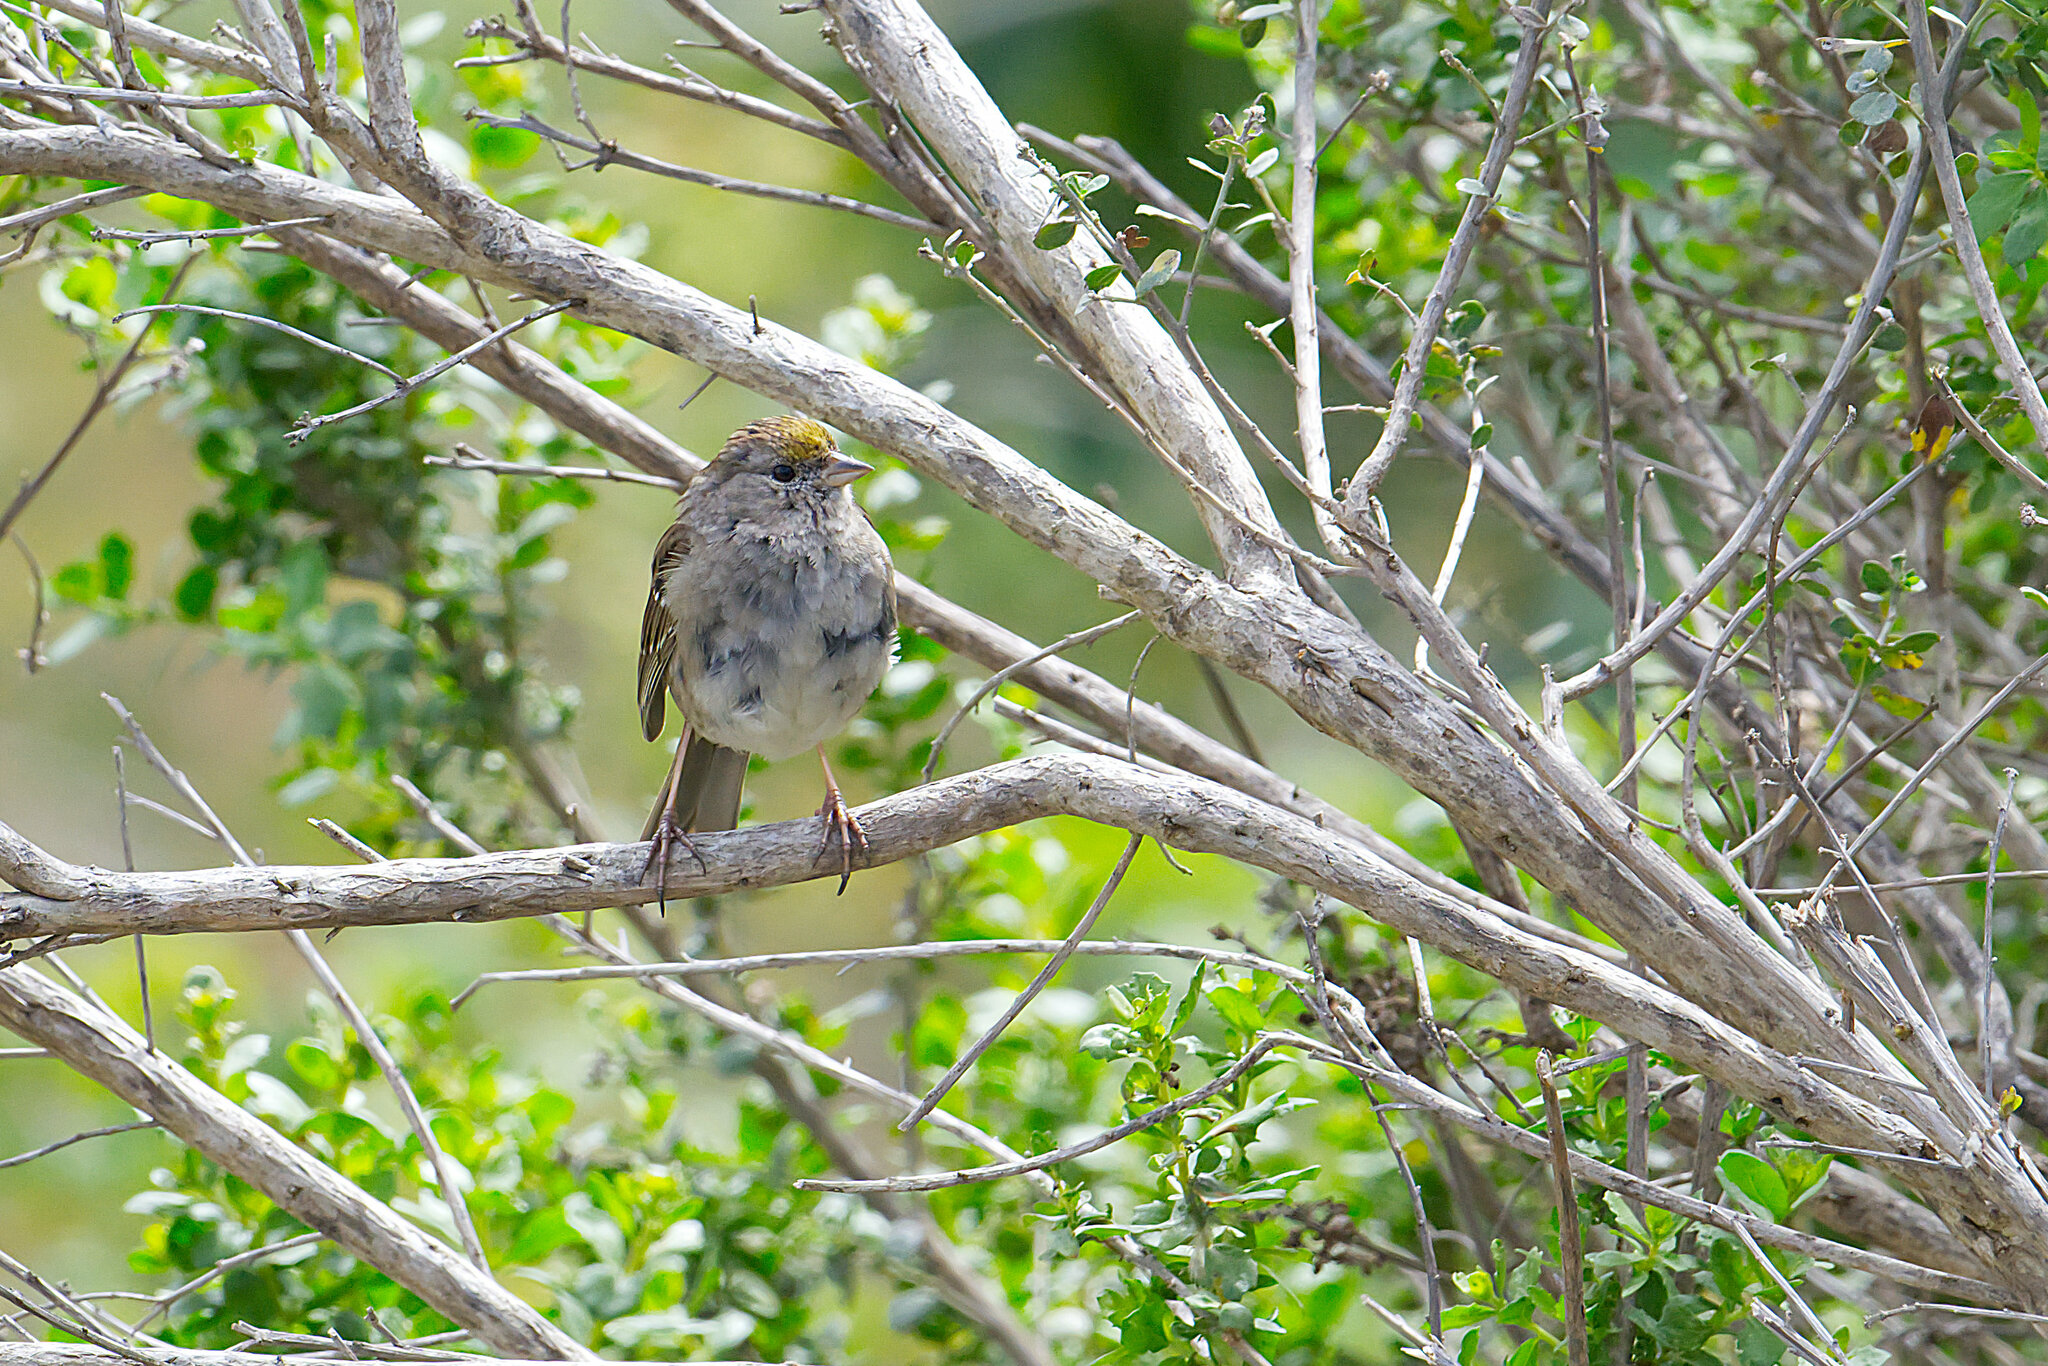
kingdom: Animalia
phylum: Chordata
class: Aves
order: Passeriformes
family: Passerellidae
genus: Zonotrichia
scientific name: Zonotrichia atricapilla
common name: Golden-crowned sparrow
